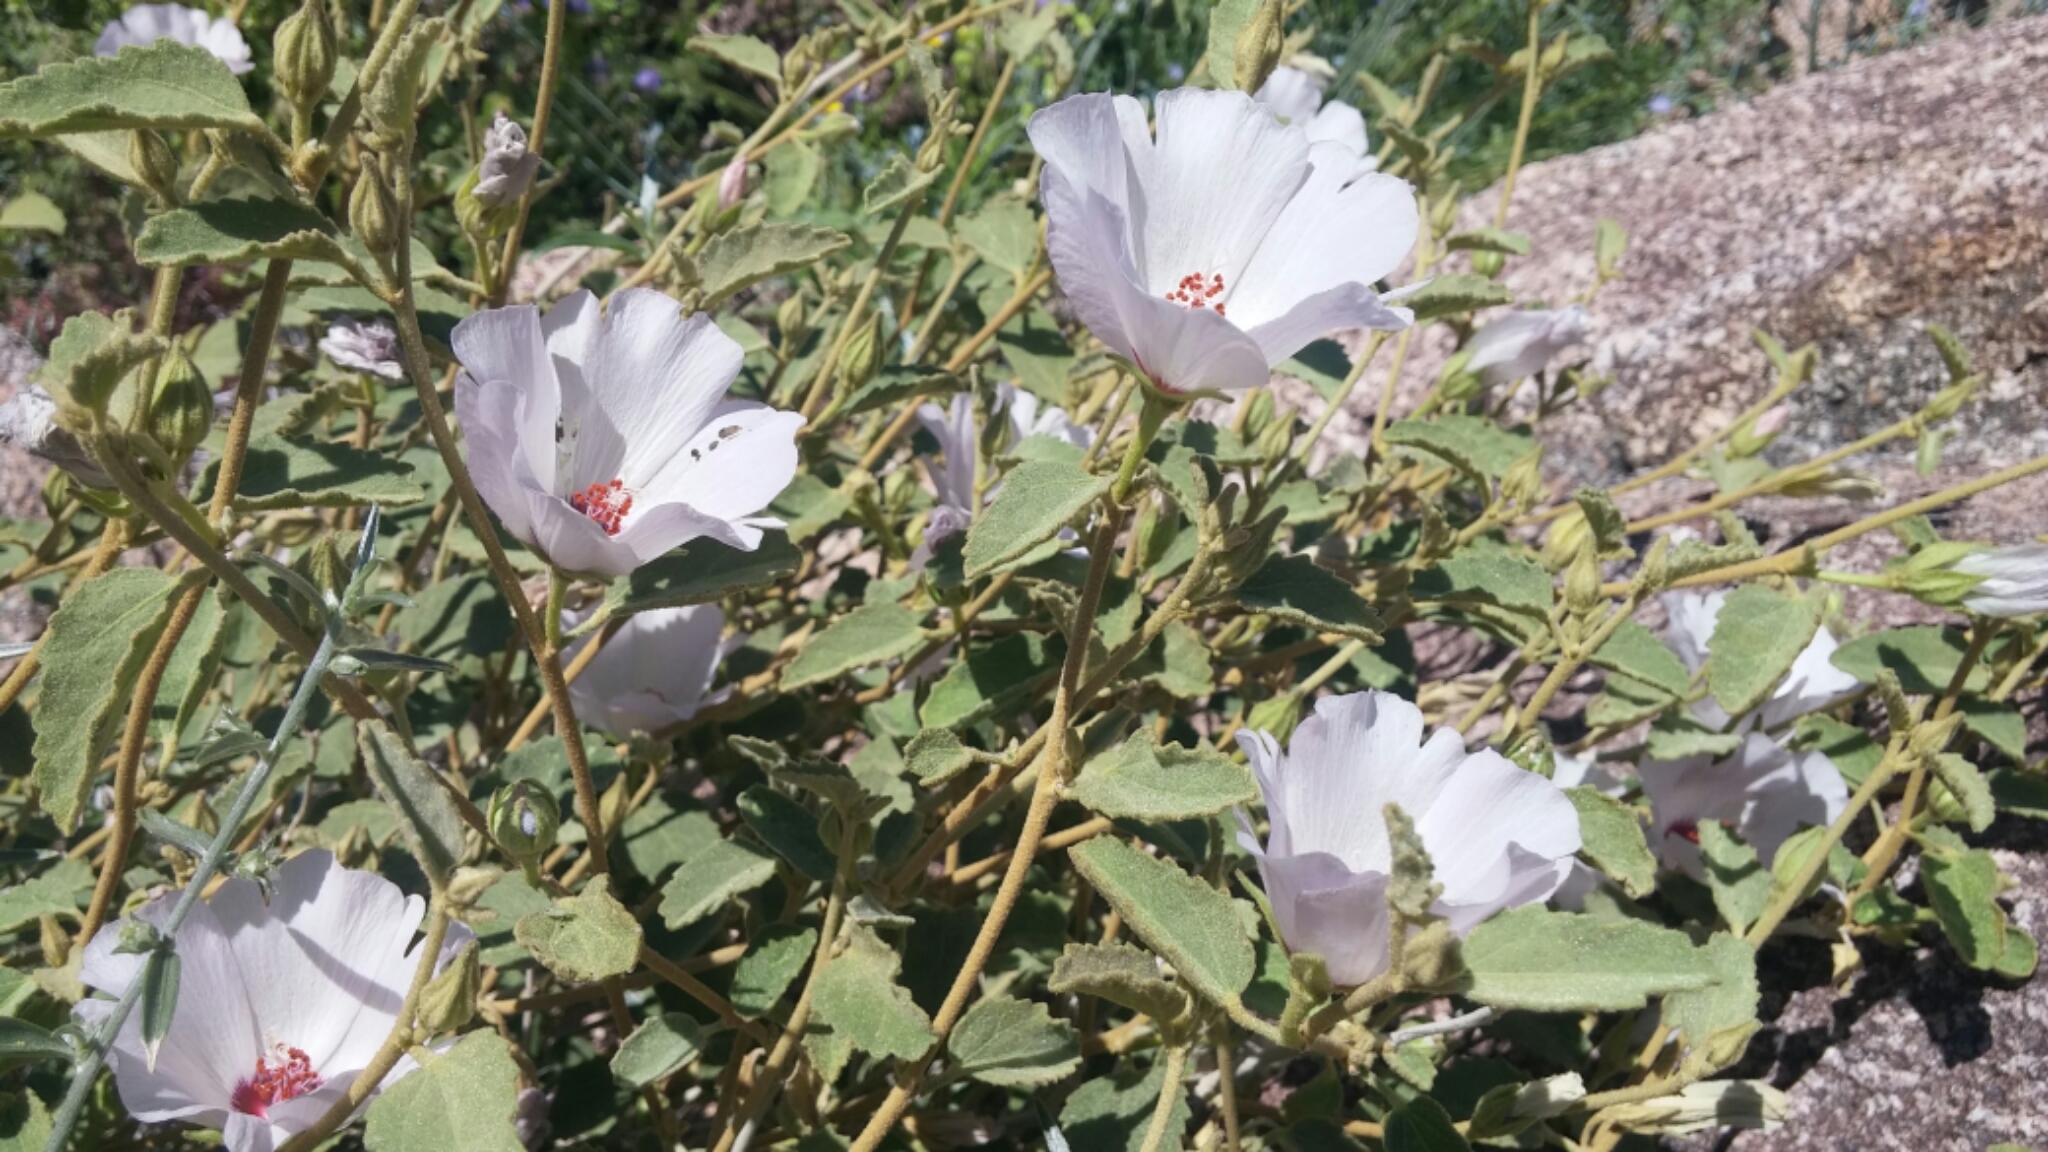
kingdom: Plantae
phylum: Tracheophyta
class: Magnoliopsida
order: Malvales
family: Malvaceae
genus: Hibiscus
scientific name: Hibiscus denudatus
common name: Paleface
